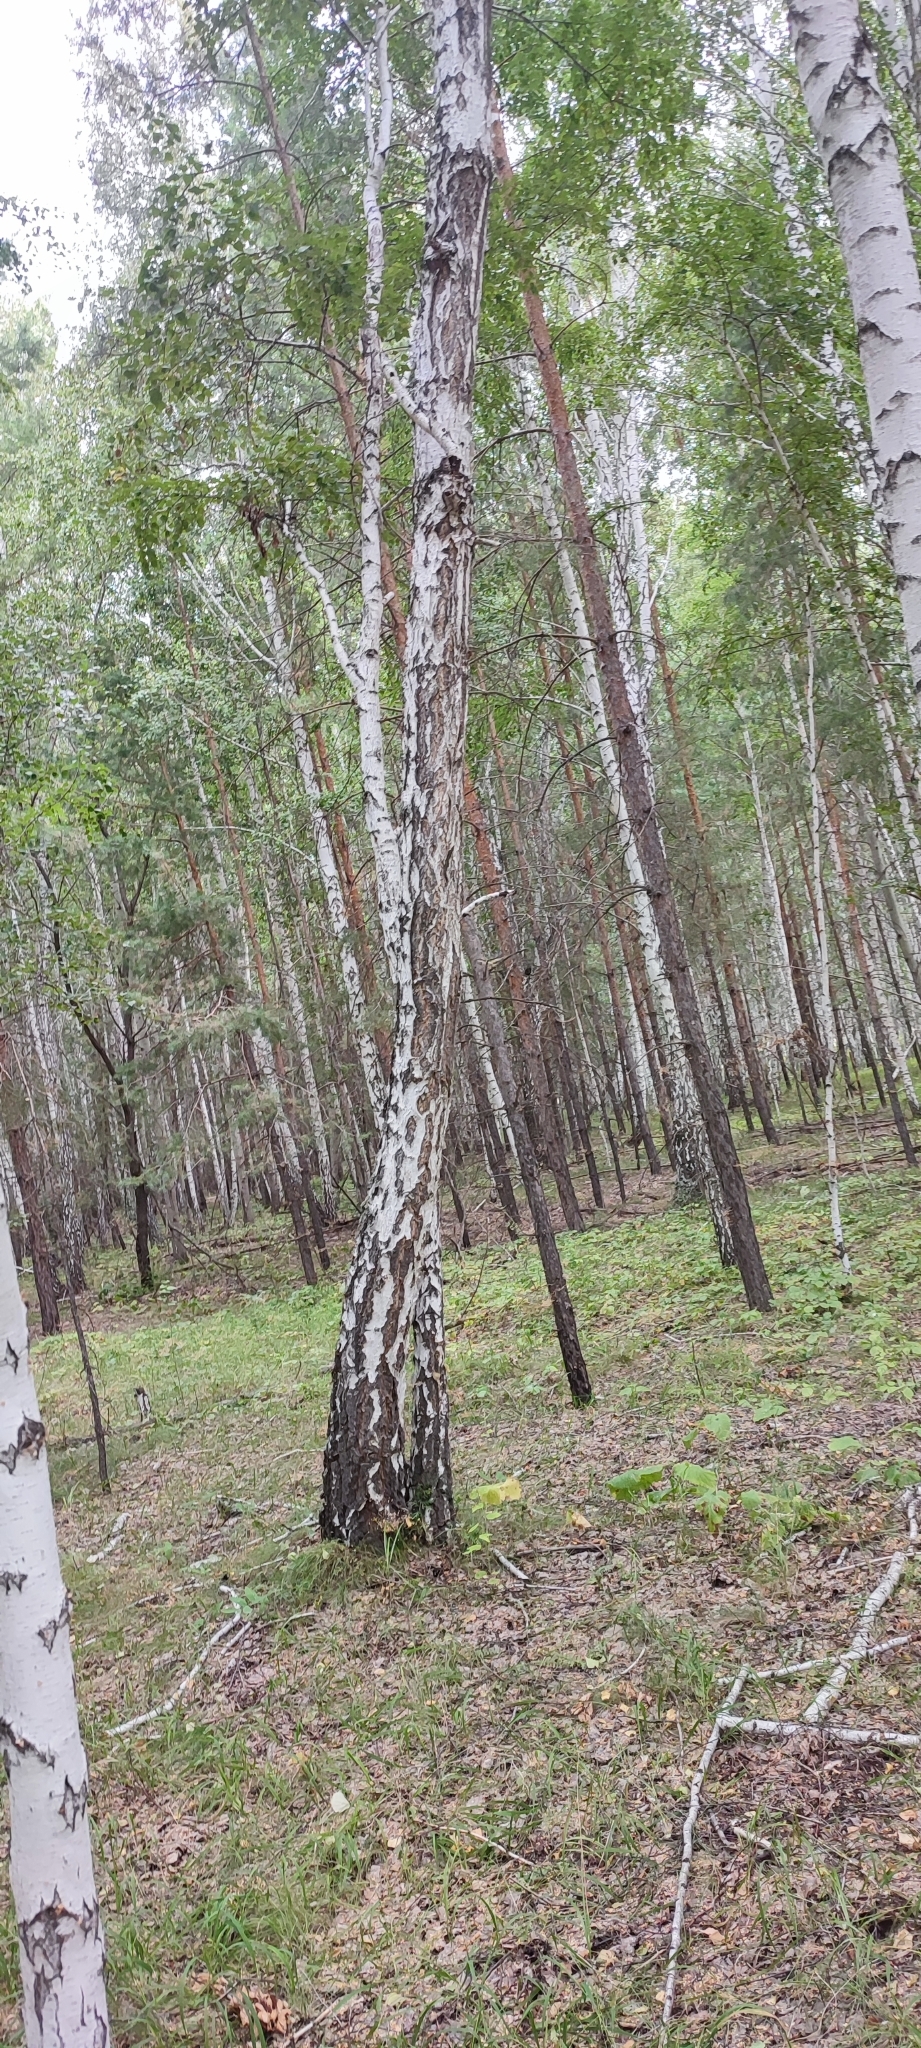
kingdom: Plantae
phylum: Tracheophyta
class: Magnoliopsida
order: Fagales
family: Betulaceae
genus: Betula
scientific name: Betula pendula
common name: Silver birch
